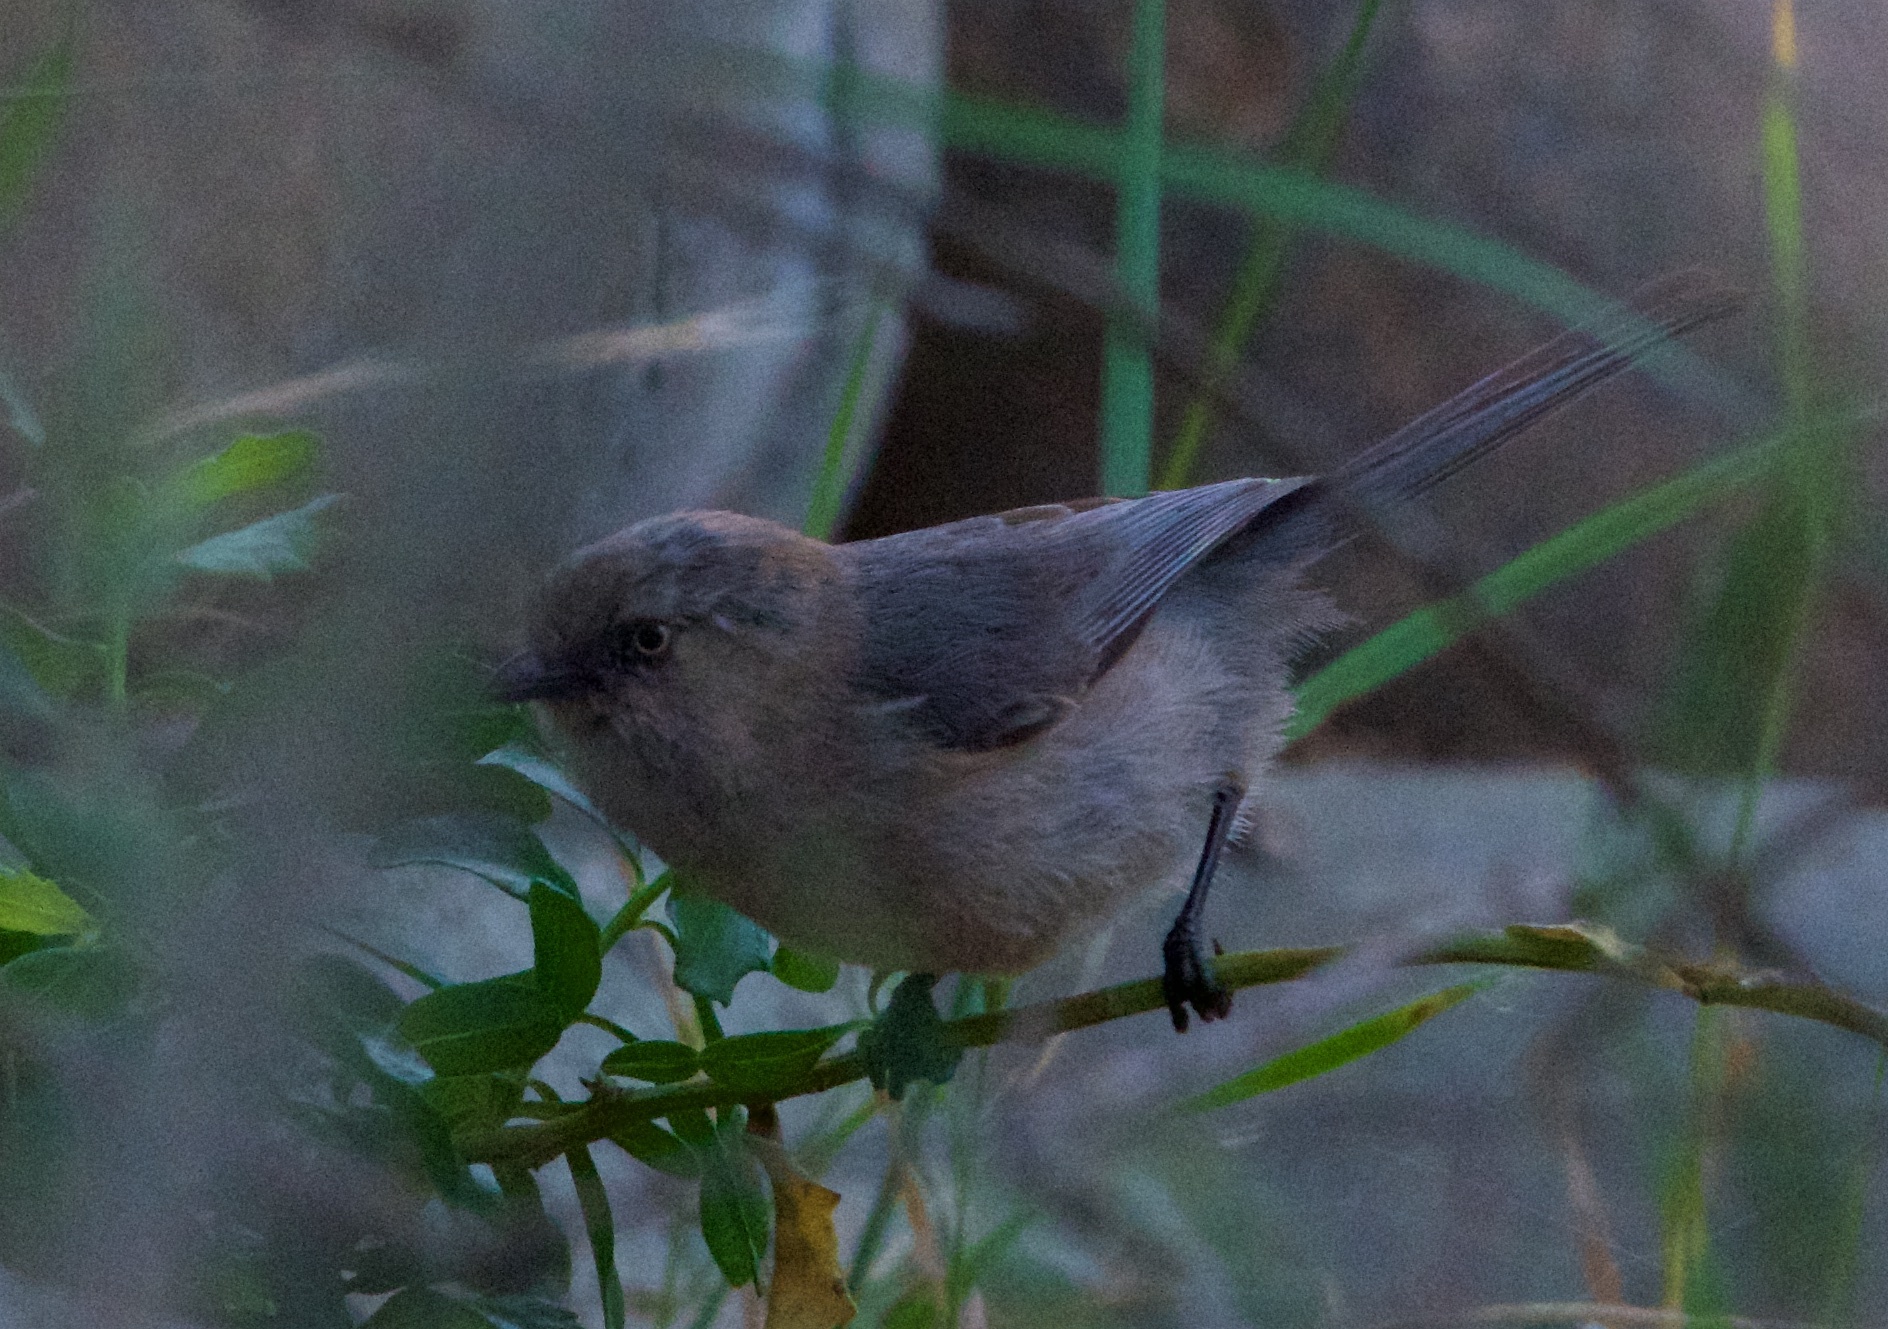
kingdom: Animalia
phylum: Chordata
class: Aves
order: Passeriformes
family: Aegithalidae
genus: Psaltriparus
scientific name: Psaltriparus minimus
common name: American bushtit
